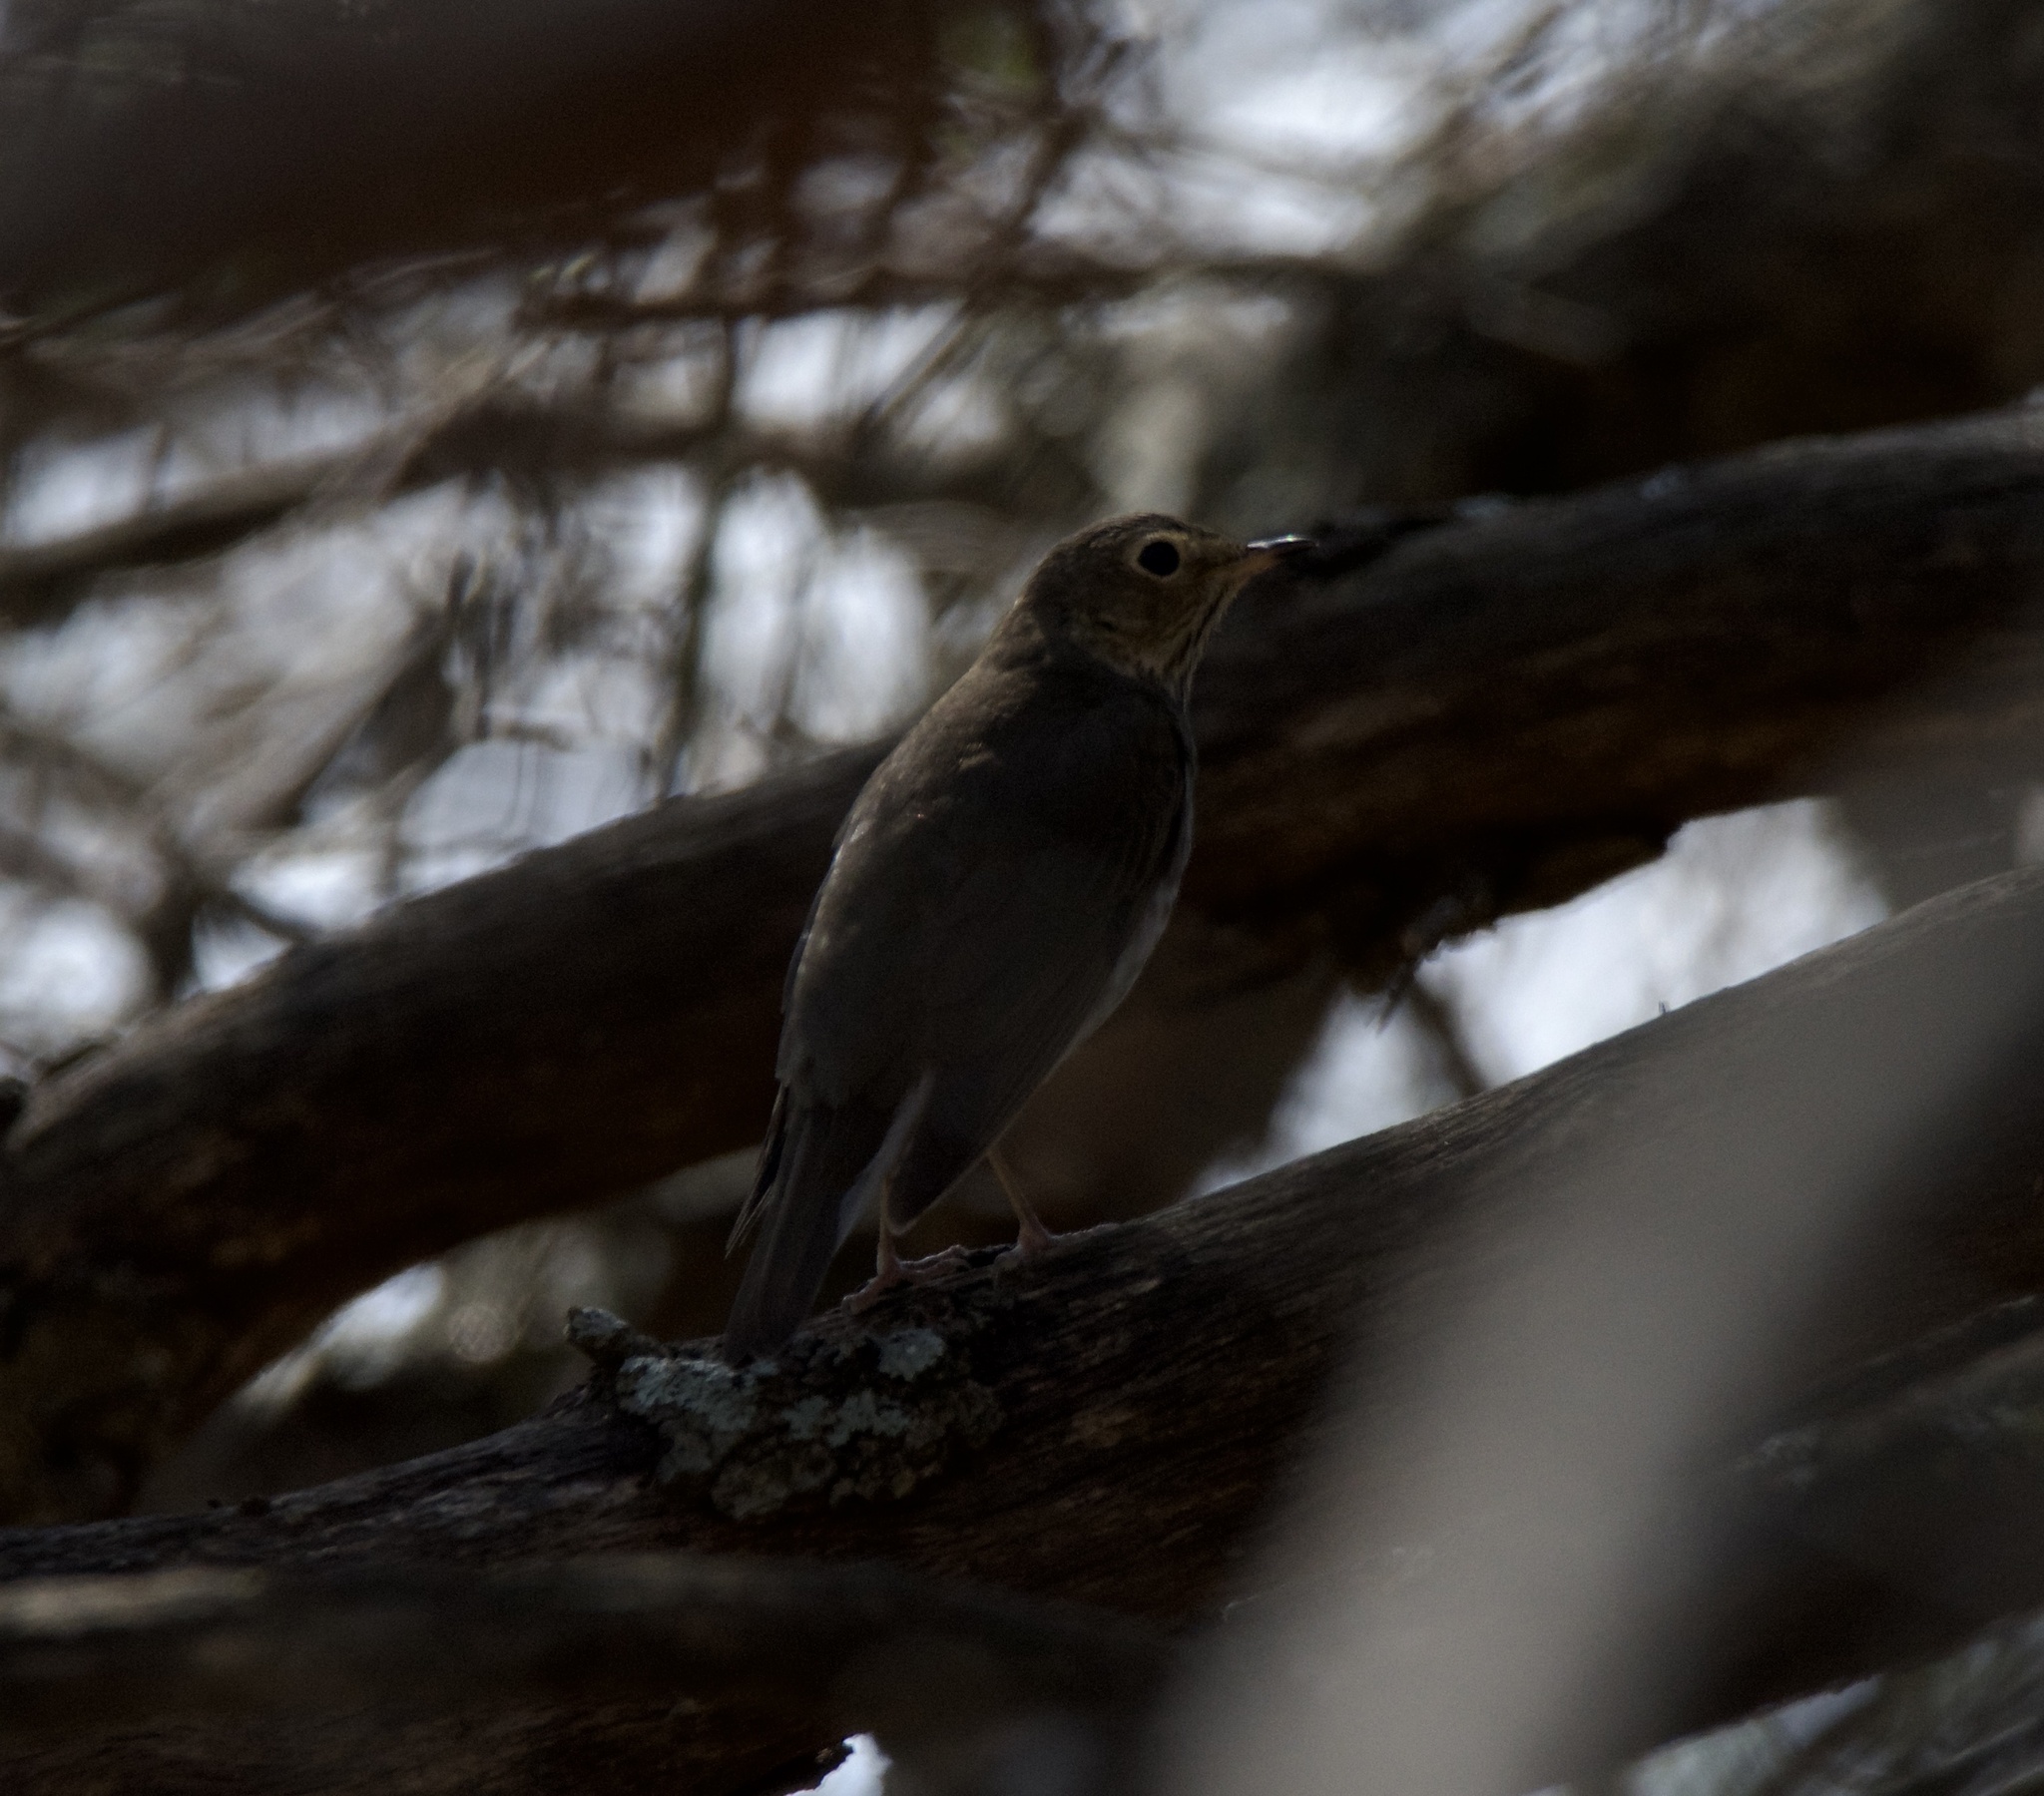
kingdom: Animalia
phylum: Chordata
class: Aves
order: Passeriformes
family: Turdidae
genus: Catharus
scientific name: Catharus ustulatus
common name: Swainson's thrush
